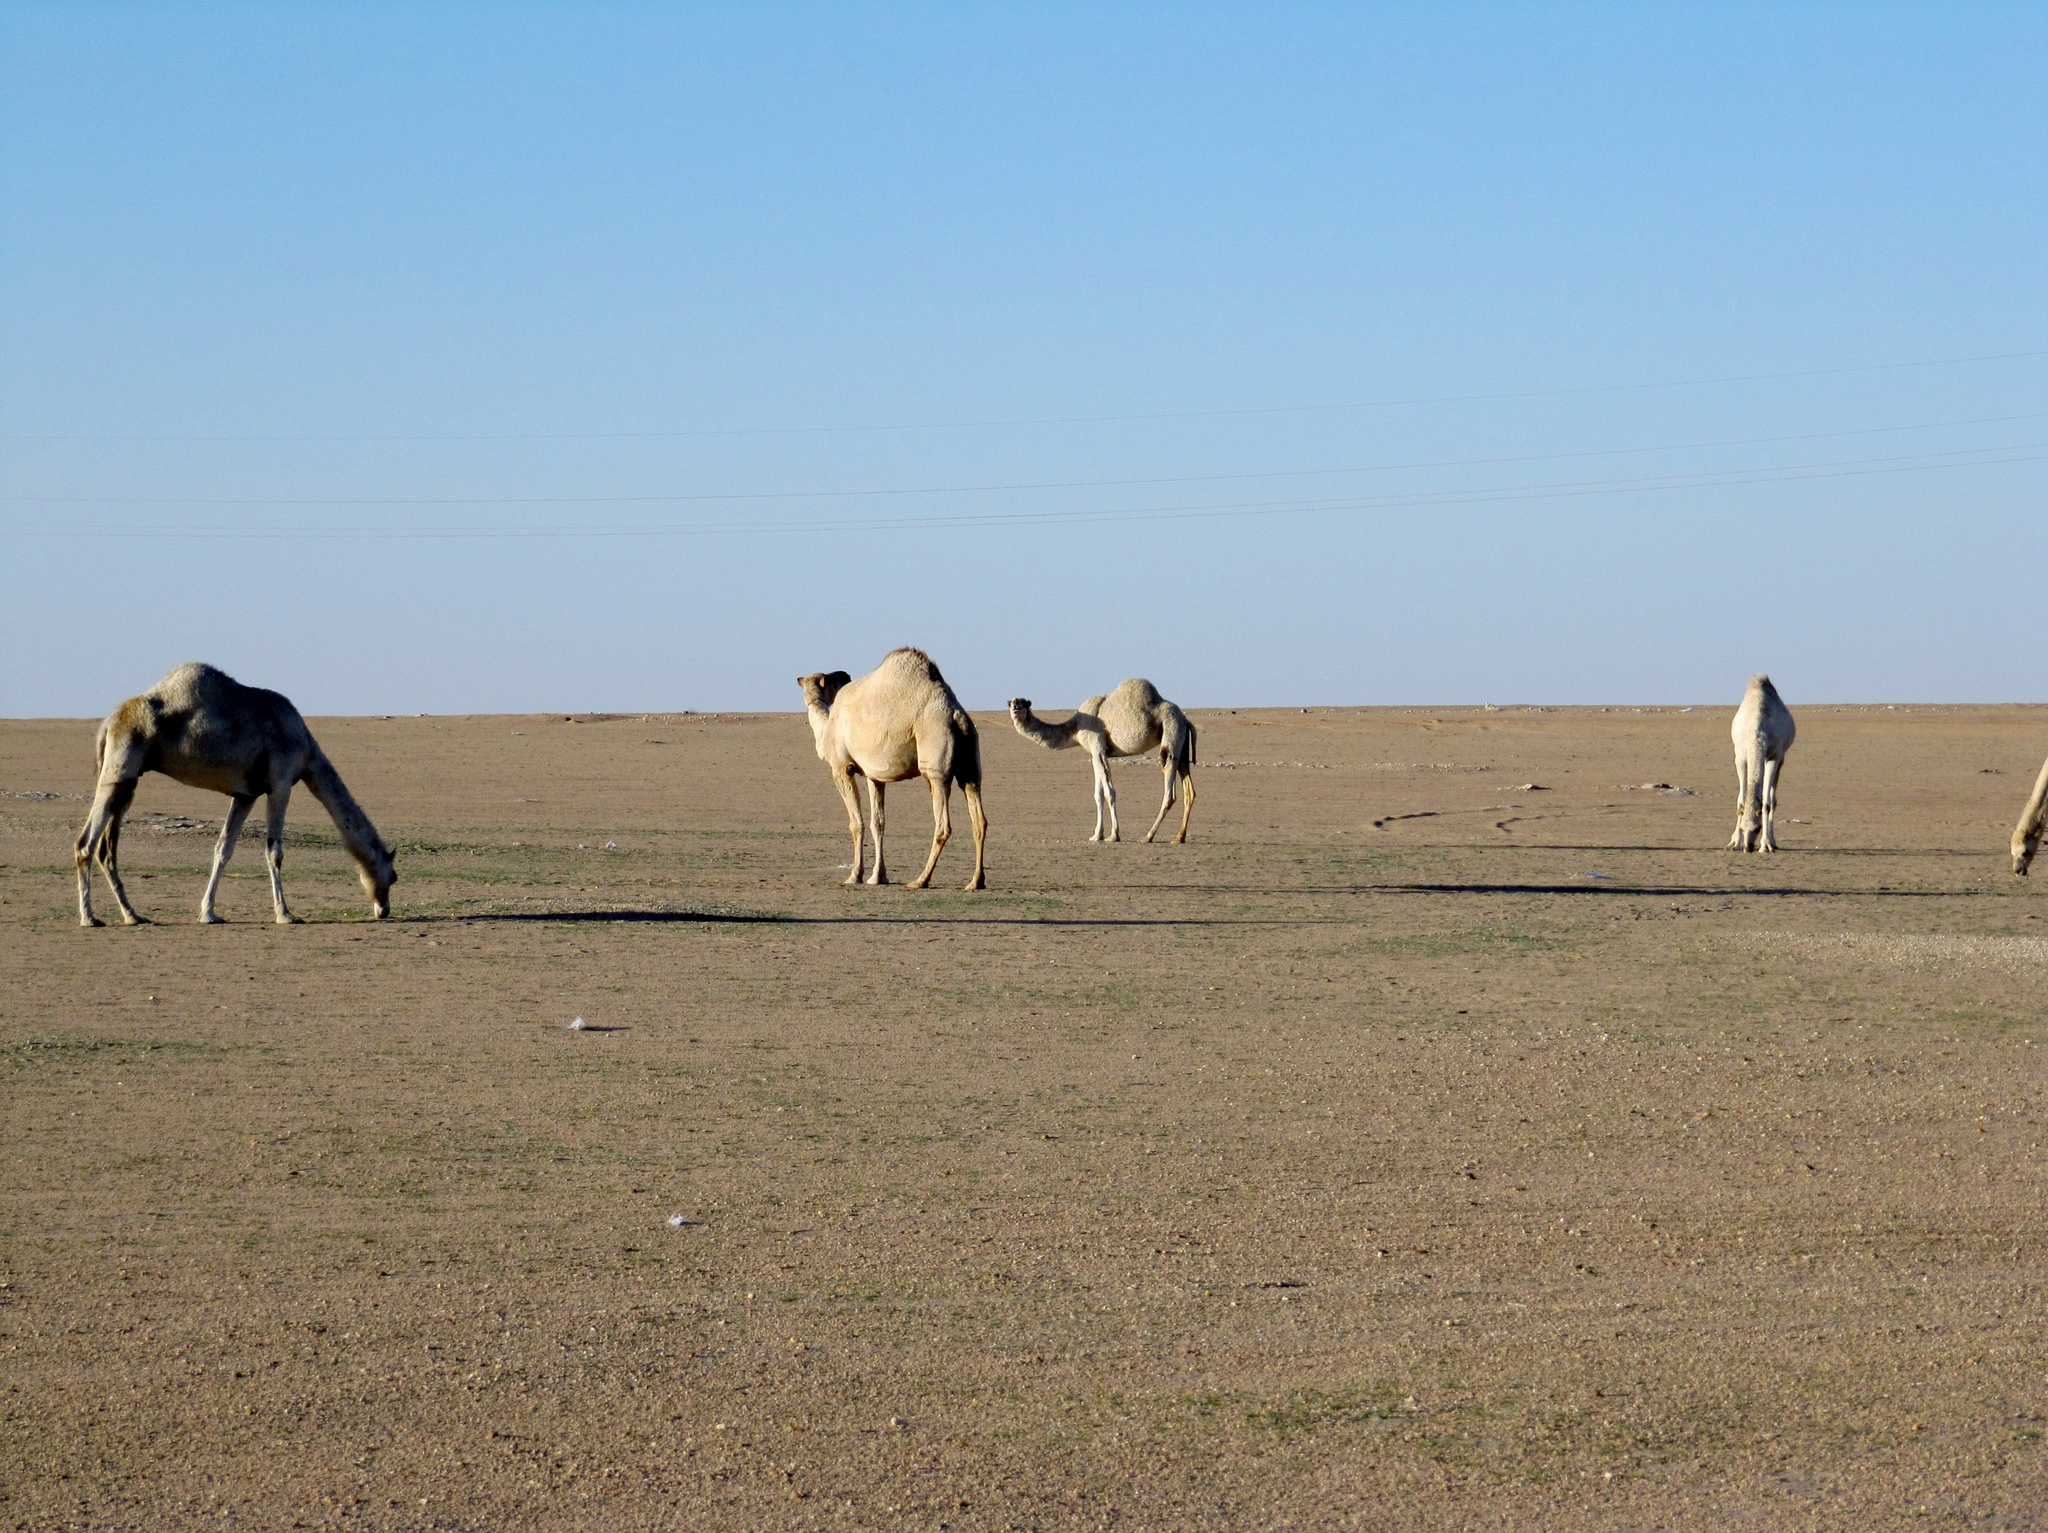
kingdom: Animalia
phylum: Chordata
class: Mammalia
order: Artiodactyla
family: Camelidae
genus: Camelus
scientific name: Camelus dromedarius
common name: One-humped camel
